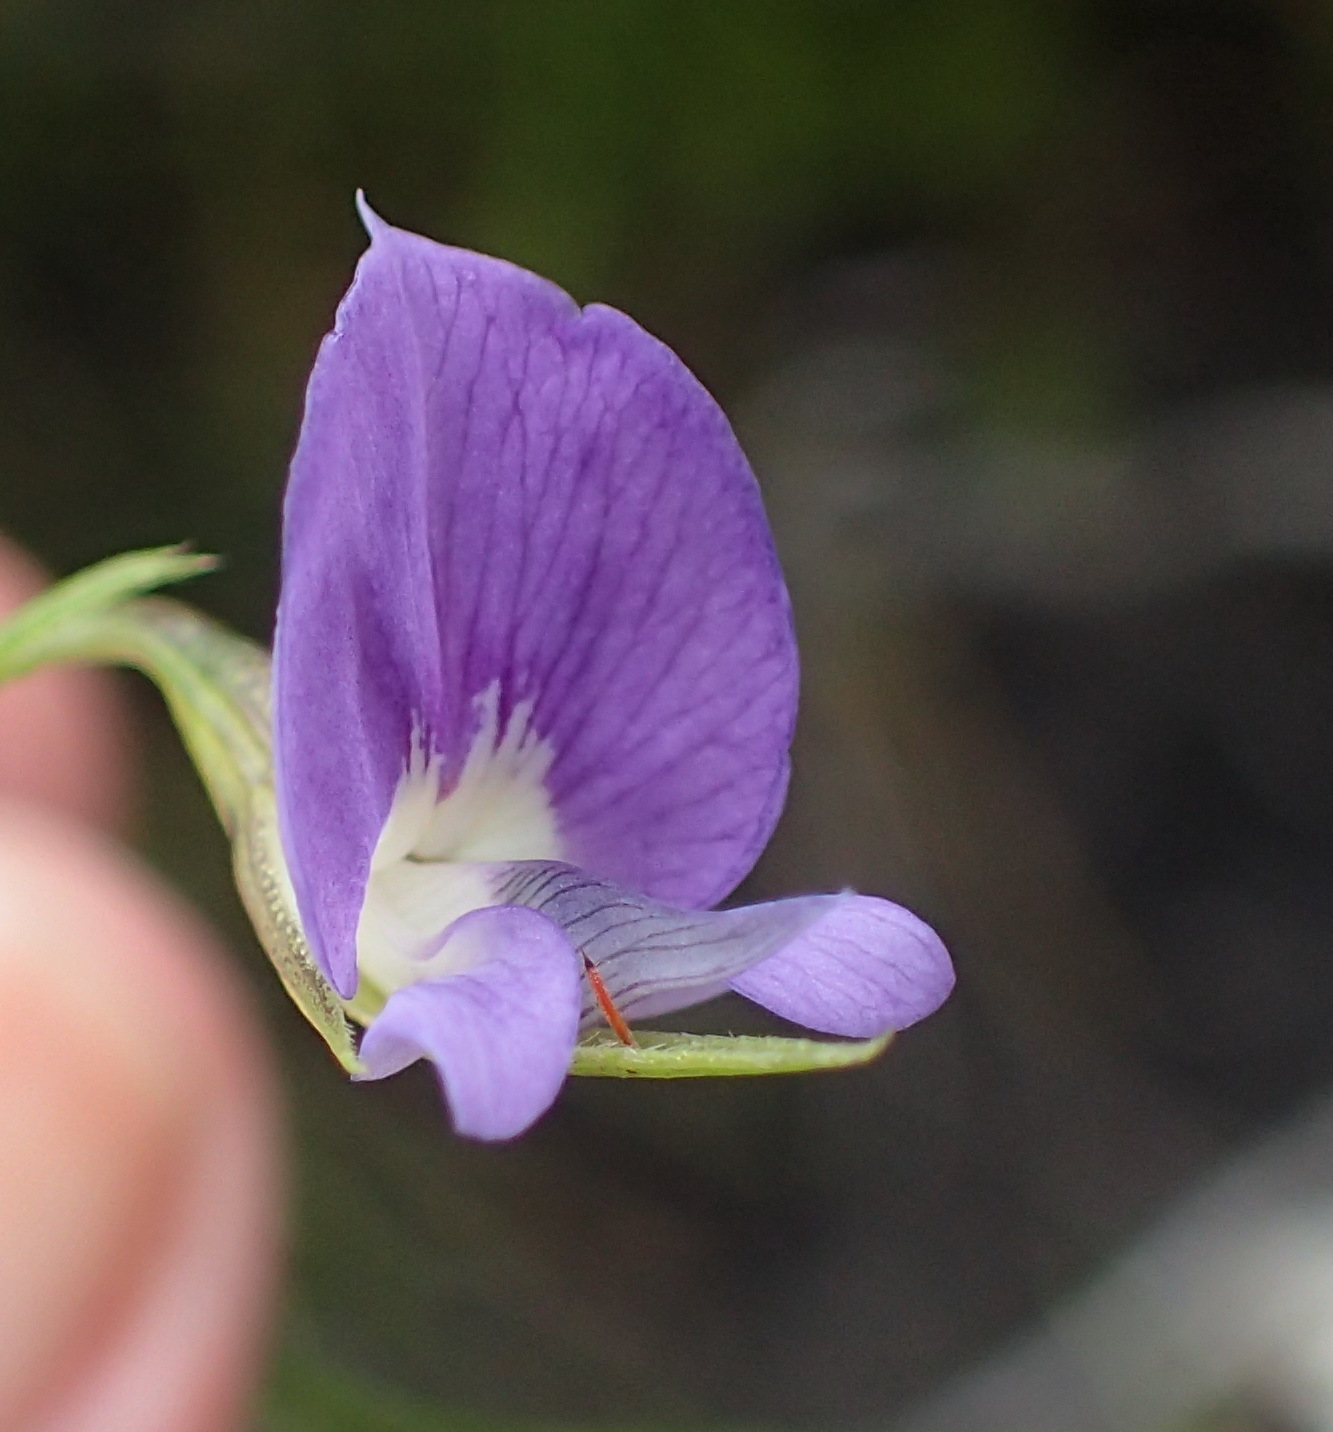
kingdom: Plantae
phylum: Tracheophyta
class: Magnoliopsida
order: Fabales
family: Fabaceae
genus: Psoralea
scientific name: Psoralea trullata
